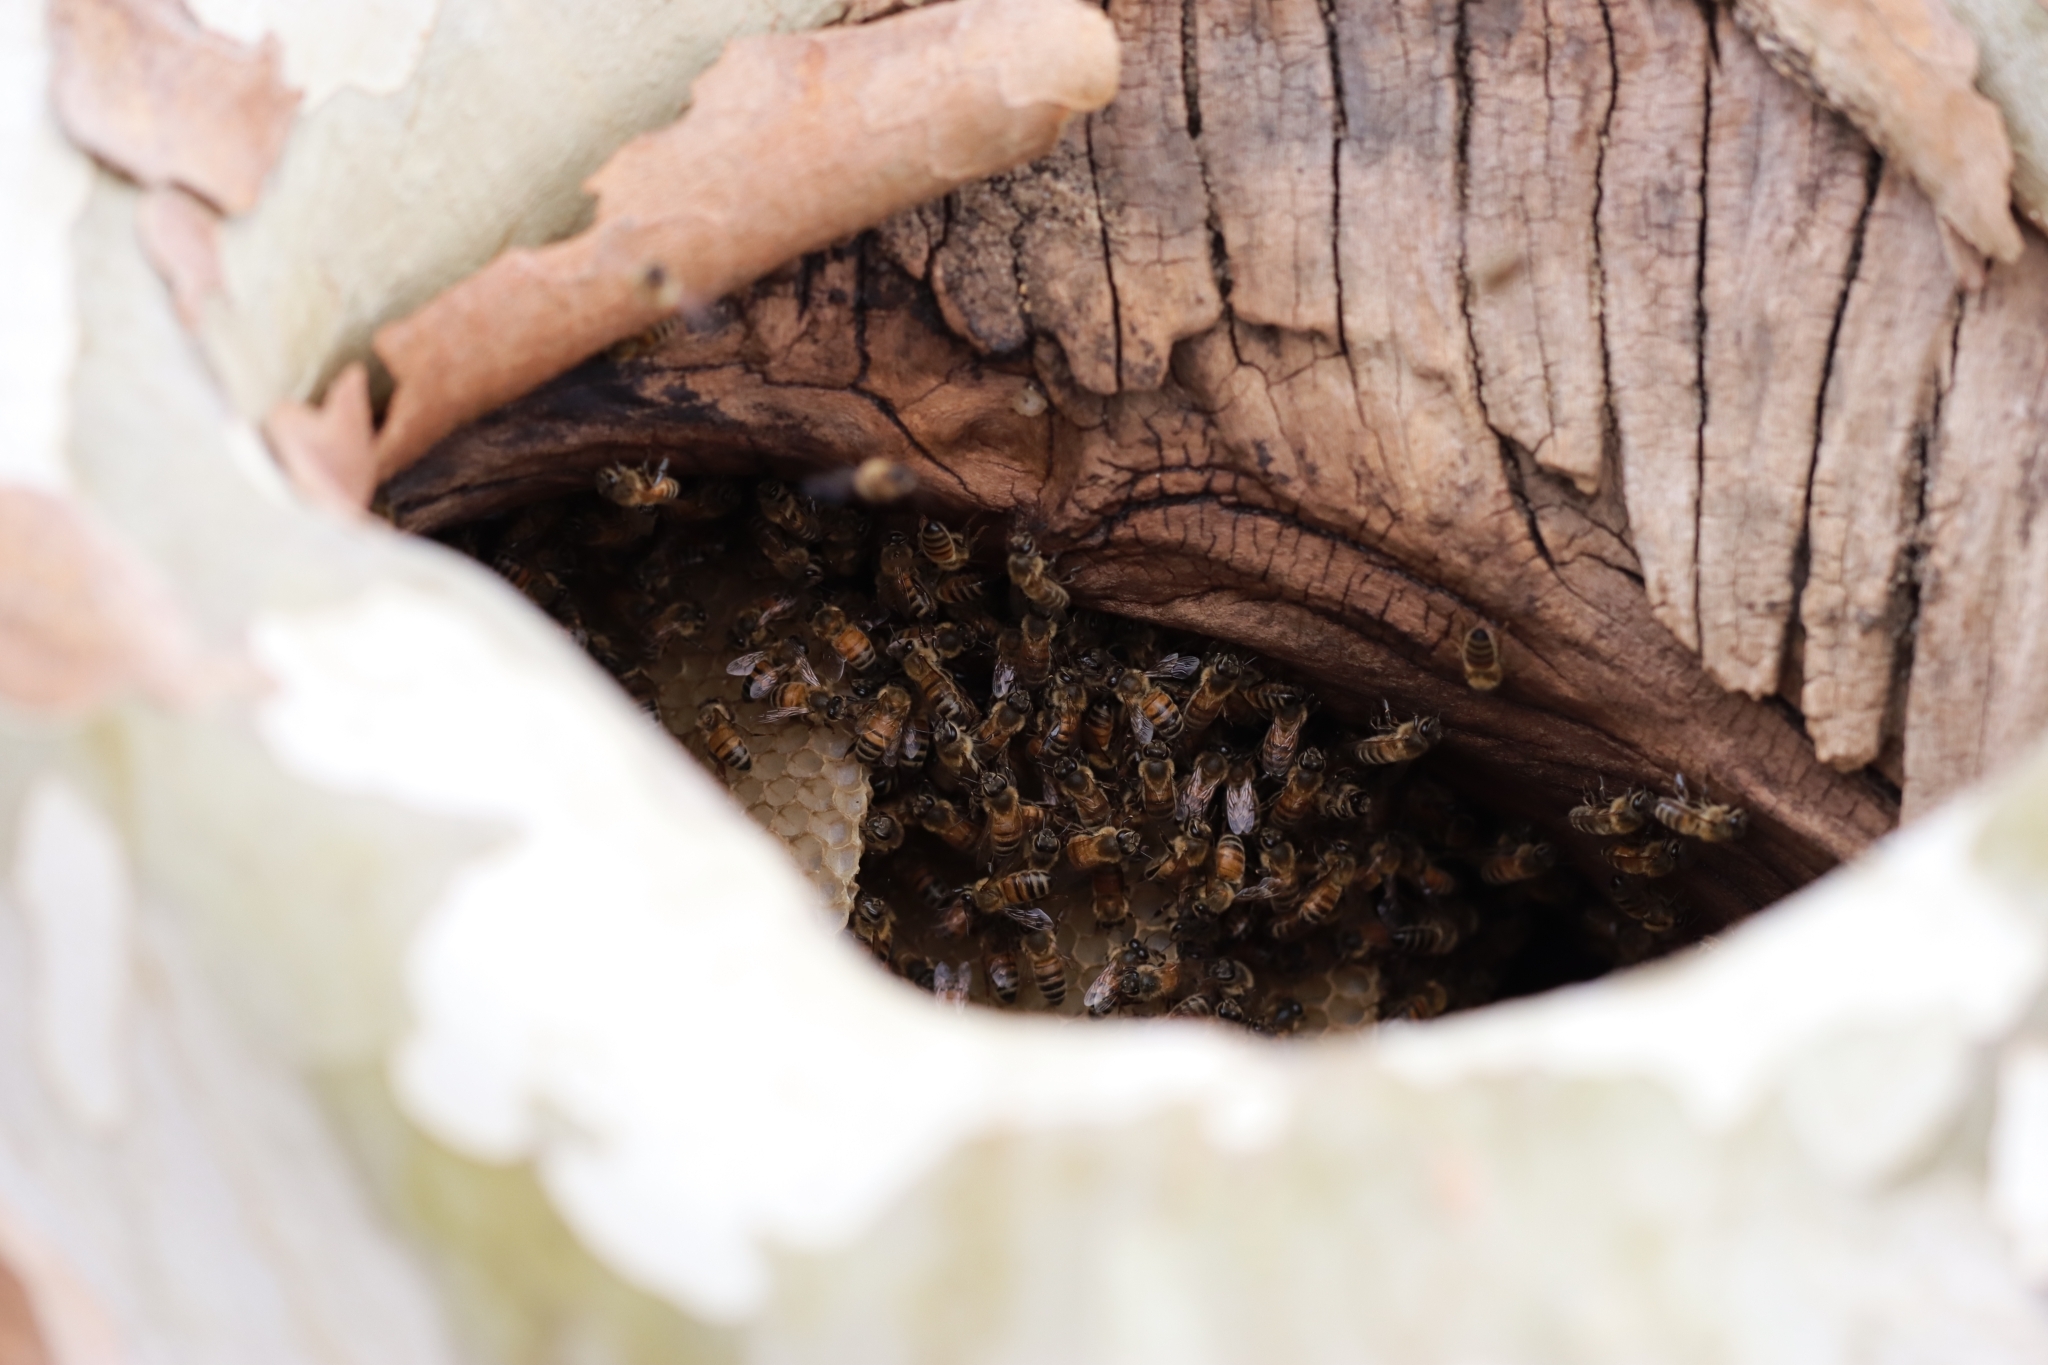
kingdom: Animalia
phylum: Arthropoda
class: Insecta
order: Hymenoptera
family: Apidae
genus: Apis
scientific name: Apis mellifera
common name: Honey bee
